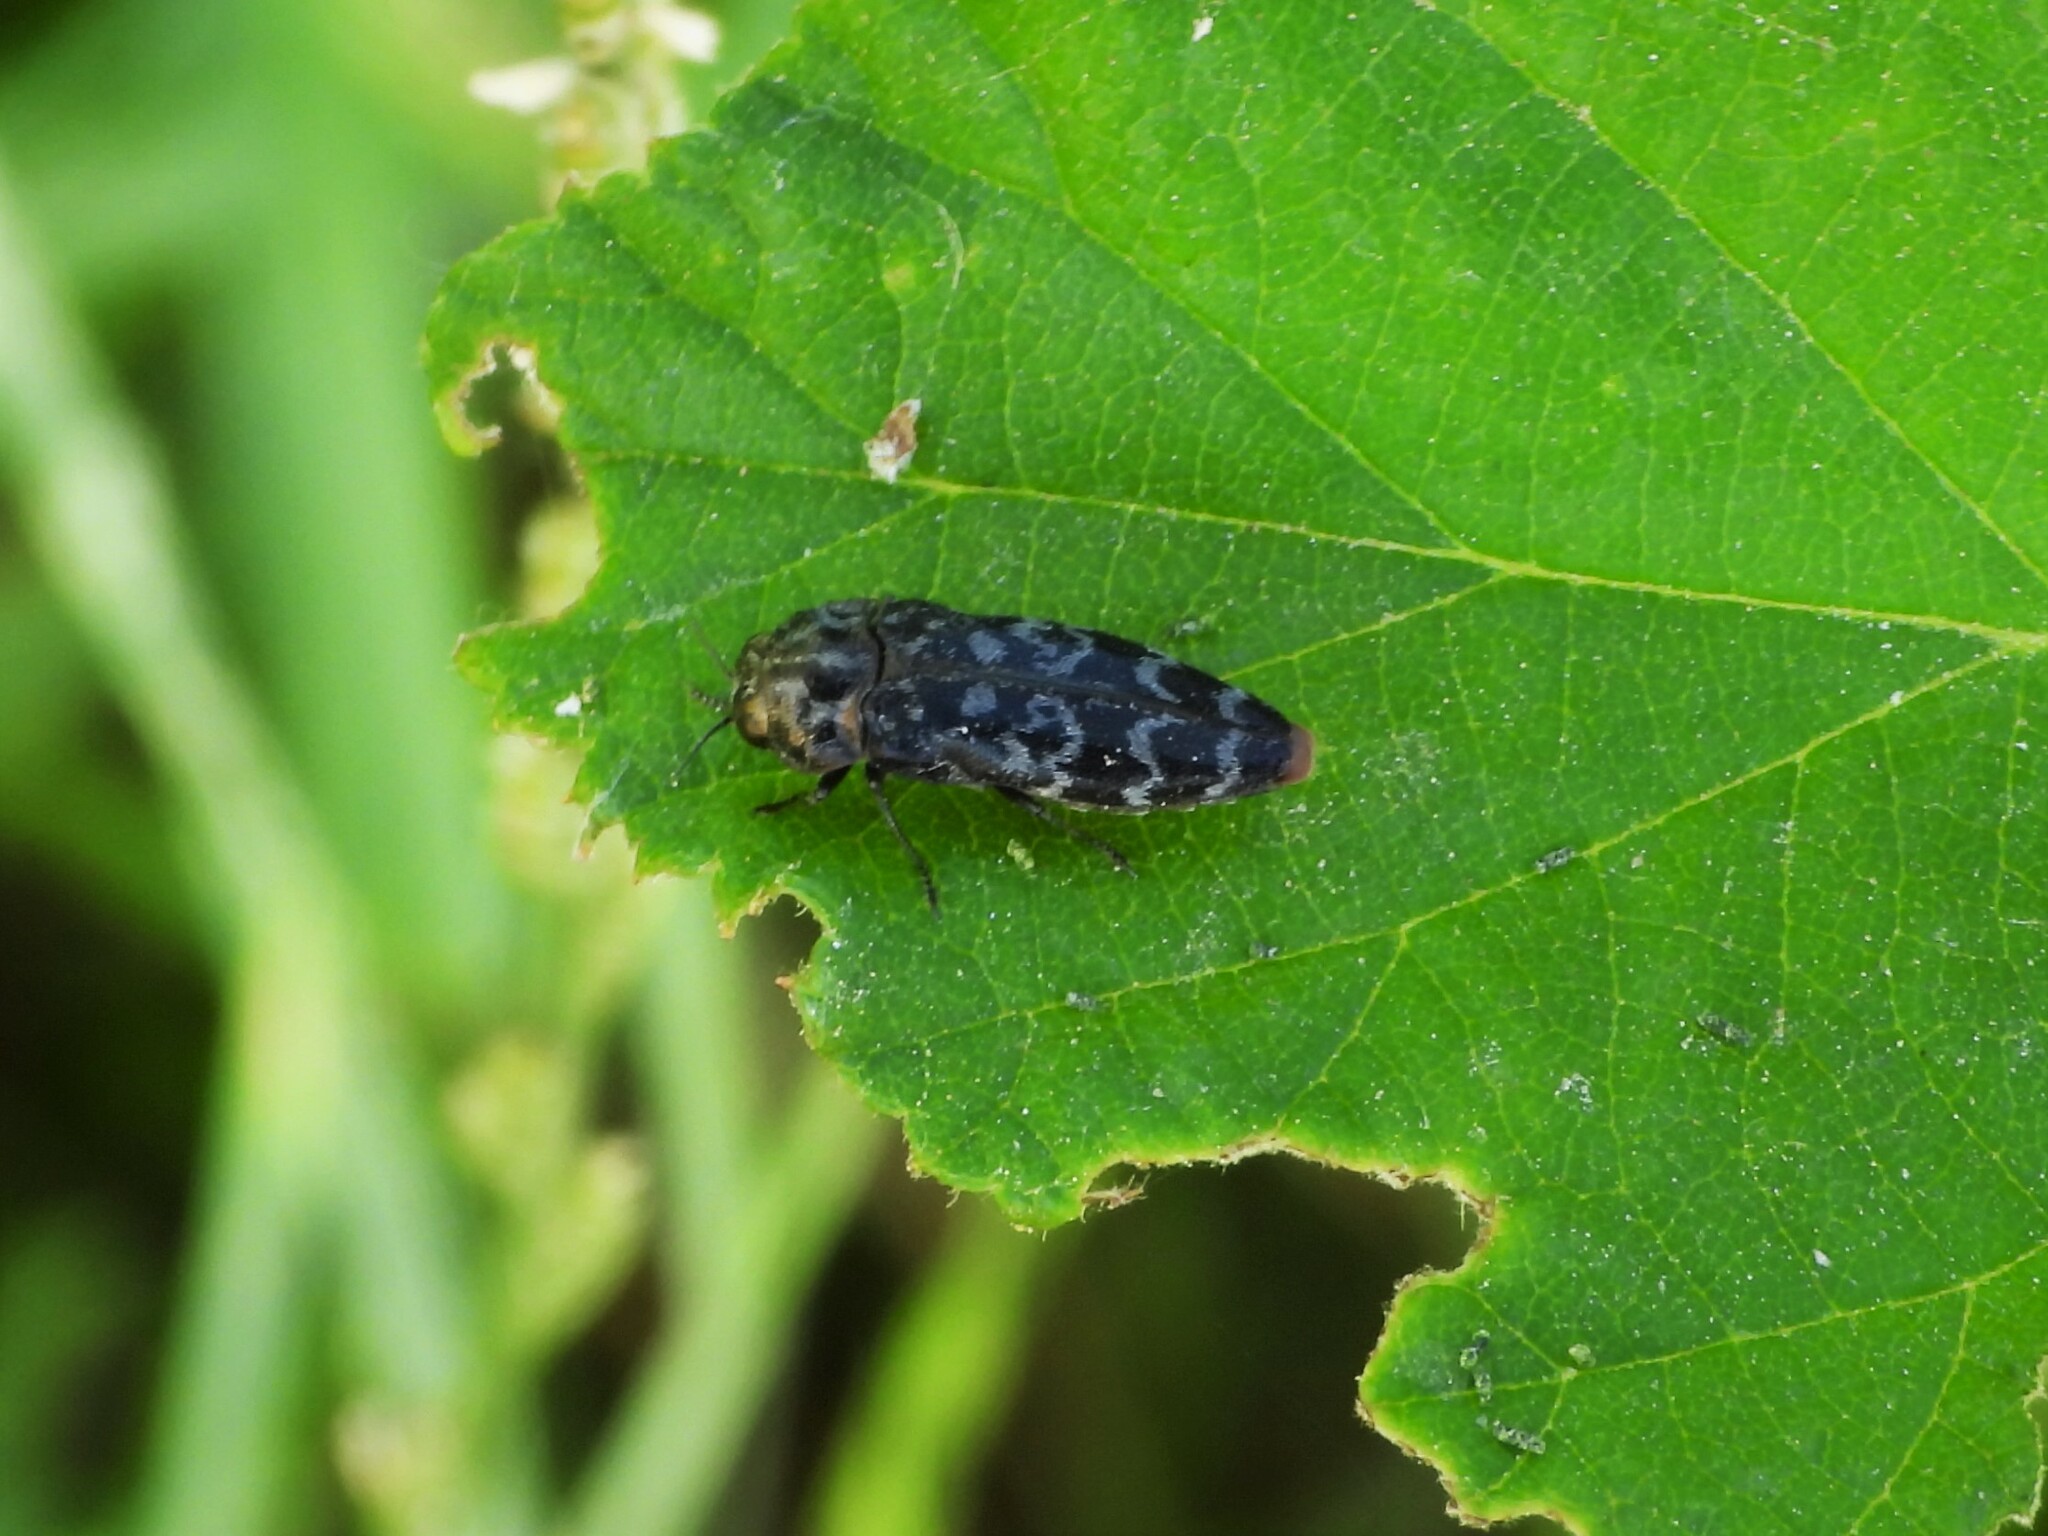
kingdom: Animalia
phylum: Arthropoda
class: Insecta
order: Coleoptera
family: Buprestidae
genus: Coraebus
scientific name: Coraebus rubi
